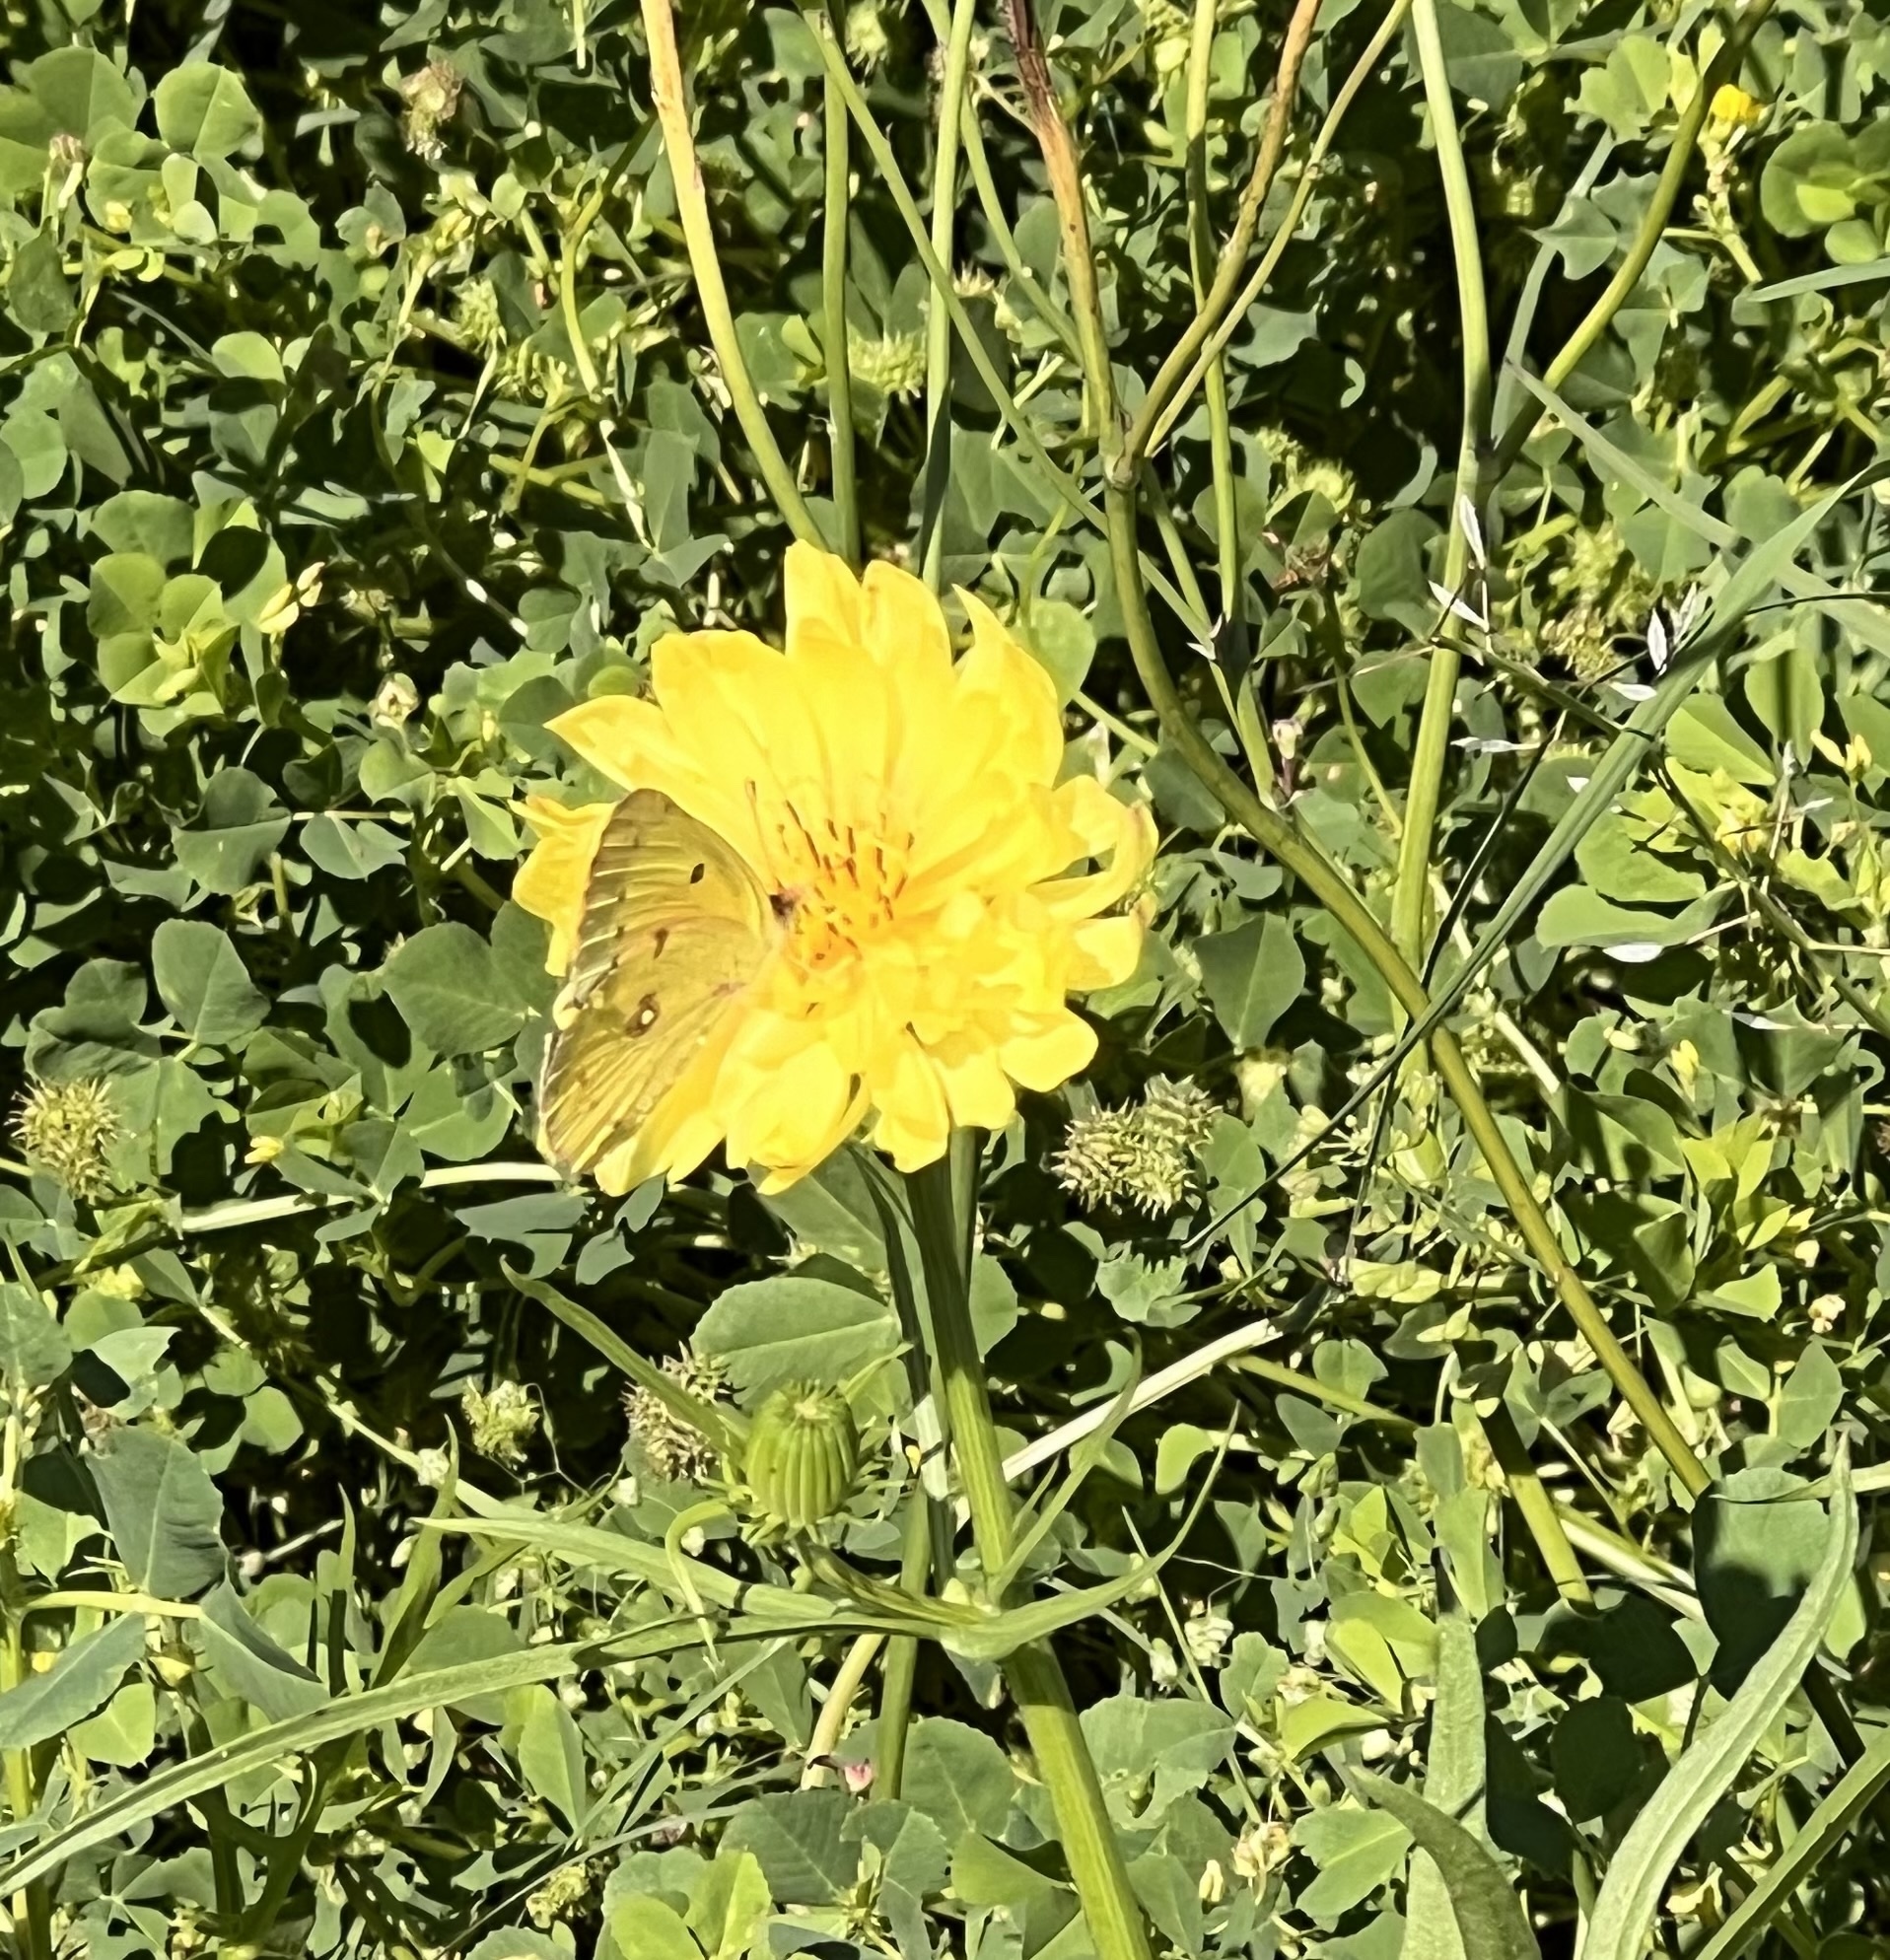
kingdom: Animalia
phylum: Arthropoda
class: Insecta
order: Lepidoptera
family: Pieridae
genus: Colias
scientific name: Colias eurytheme
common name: Alfalfa butterfly
